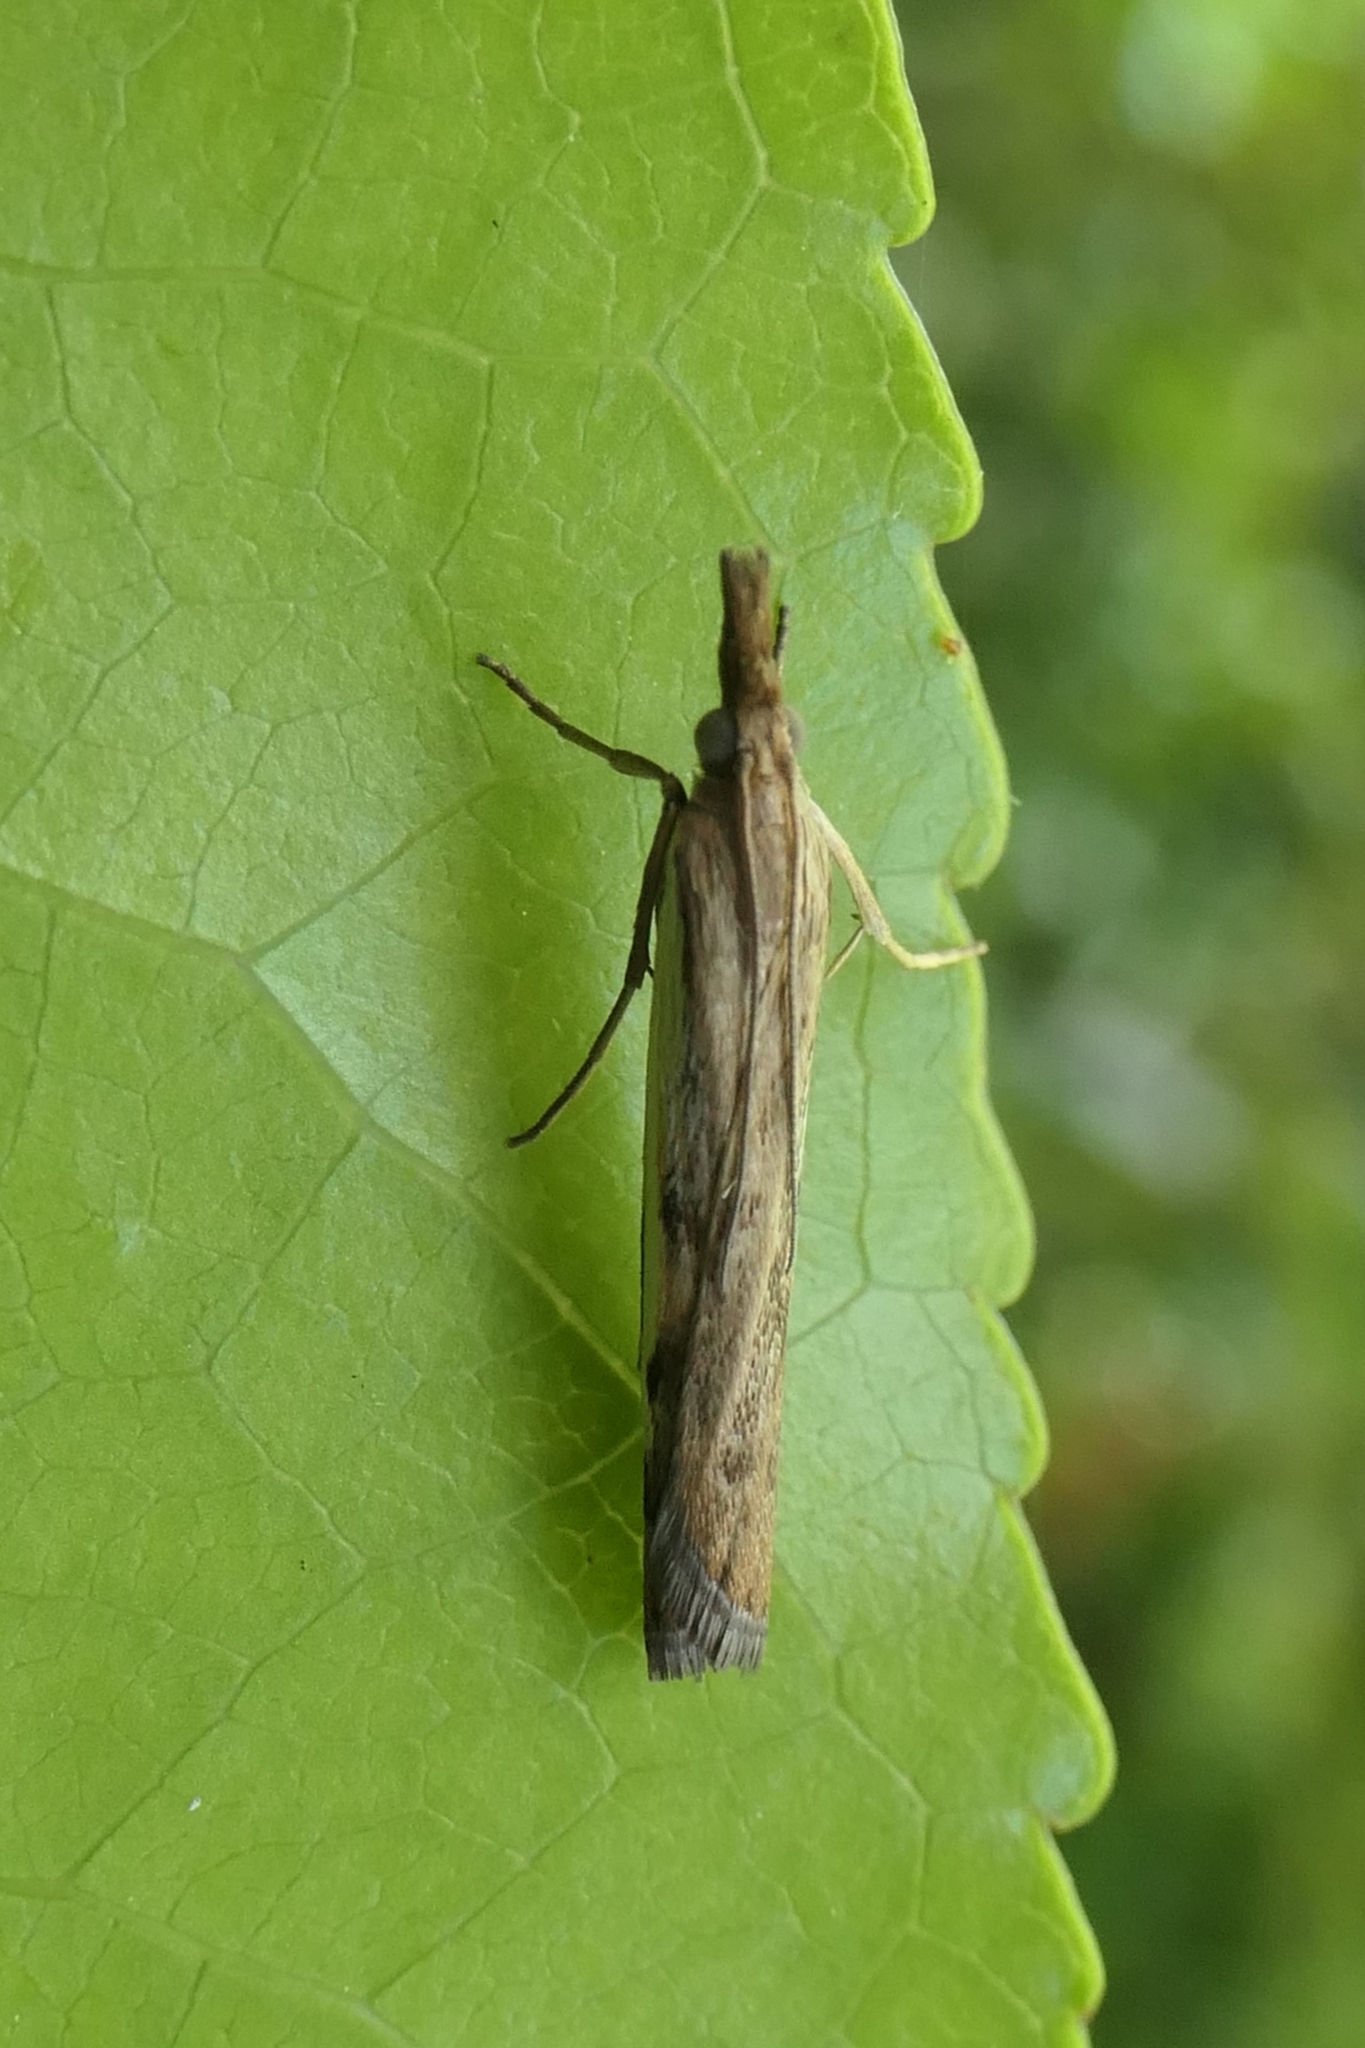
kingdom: Animalia
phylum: Arthropoda
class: Insecta
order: Lepidoptera
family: Crambidae
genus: Orocrambus
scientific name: Orocrambus flexuosellus
